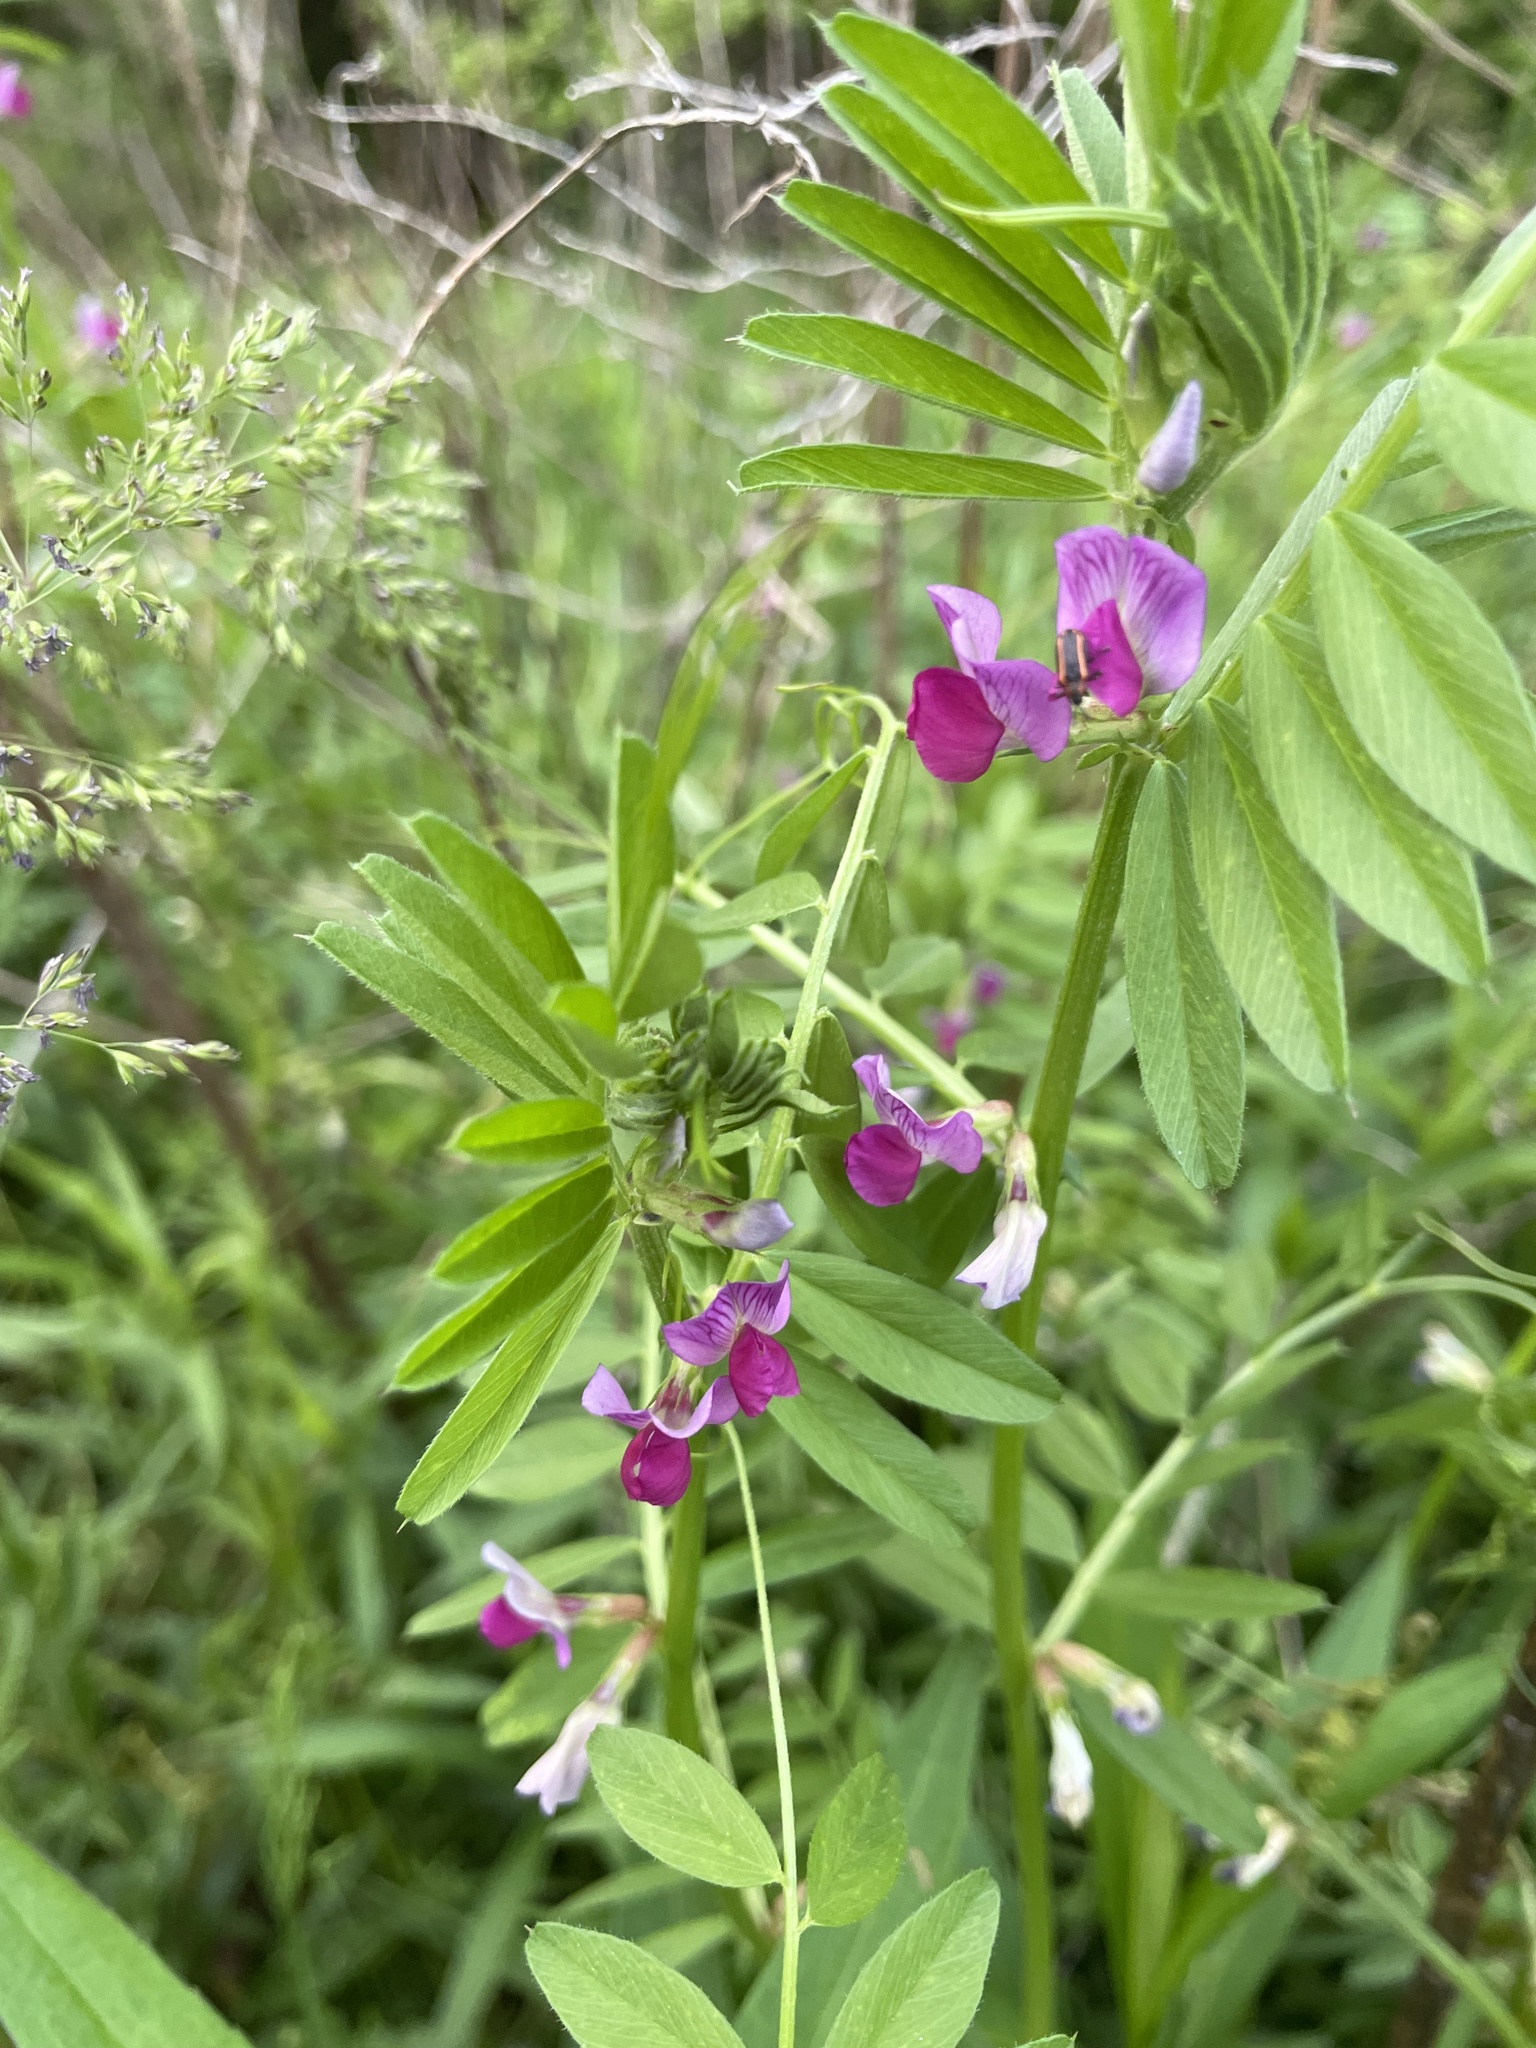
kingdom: Plantae
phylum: Tracheophyta
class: Magnoliopsida
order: Fabales
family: Fabaceae
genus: Vicia
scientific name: Vicia sativa
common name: Garden vetch
